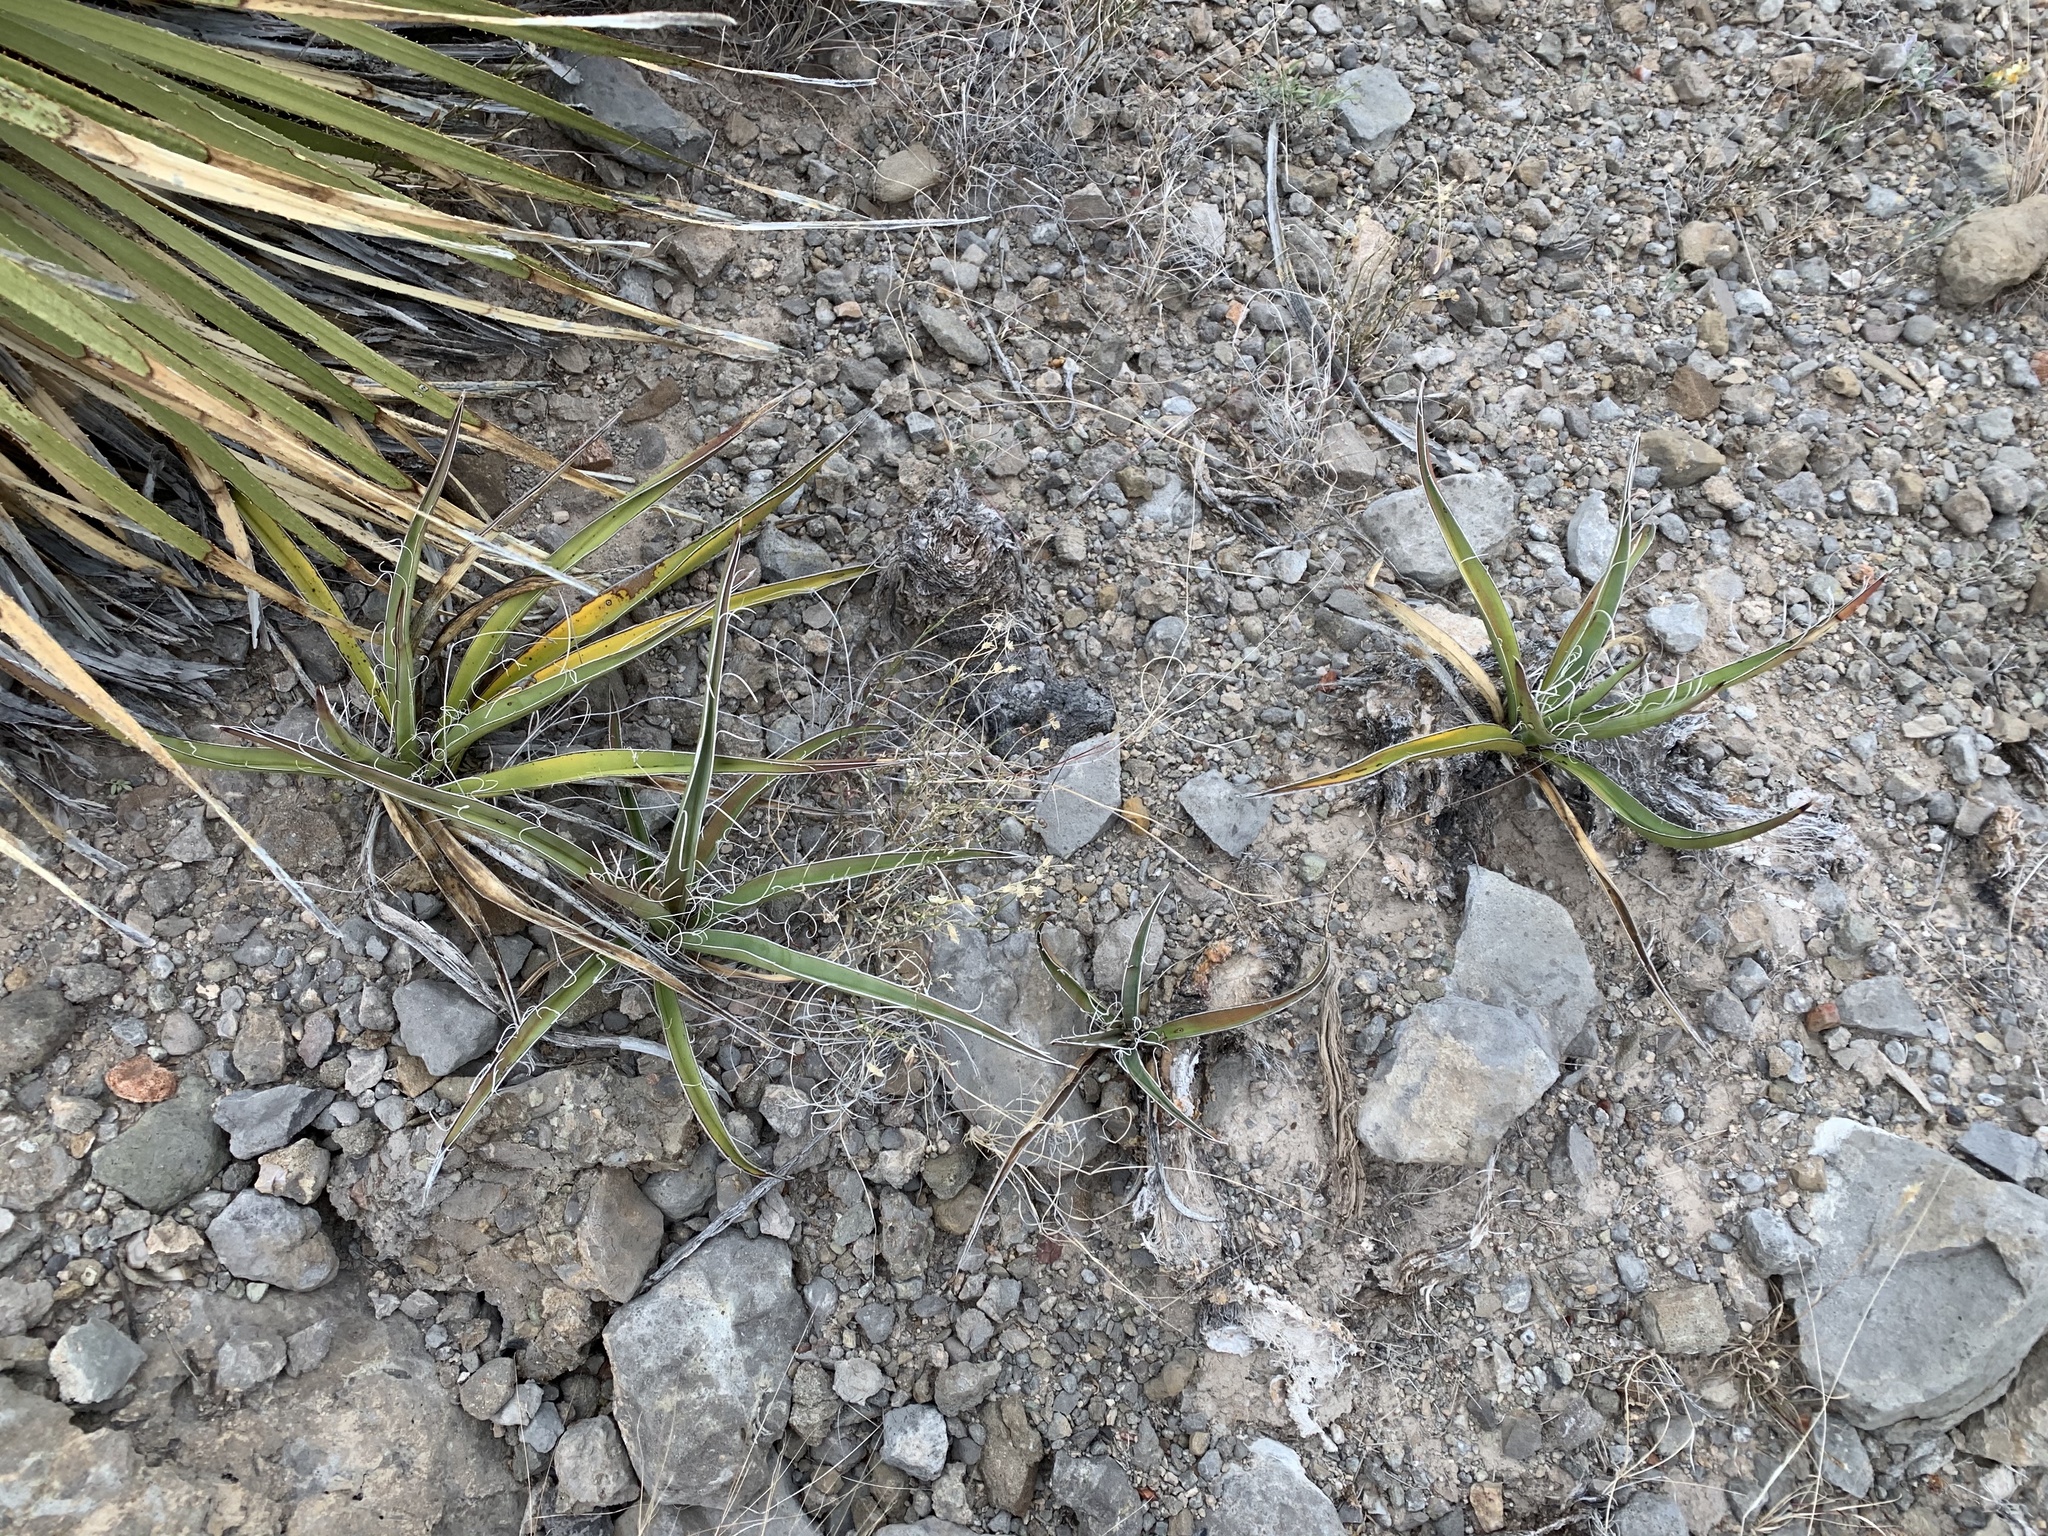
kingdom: Plantae
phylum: Tracheophyta
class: Liliopsida
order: Asparagales
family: Asparagaceae
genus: Yucca
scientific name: Yucca baccata
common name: Banana yucca
